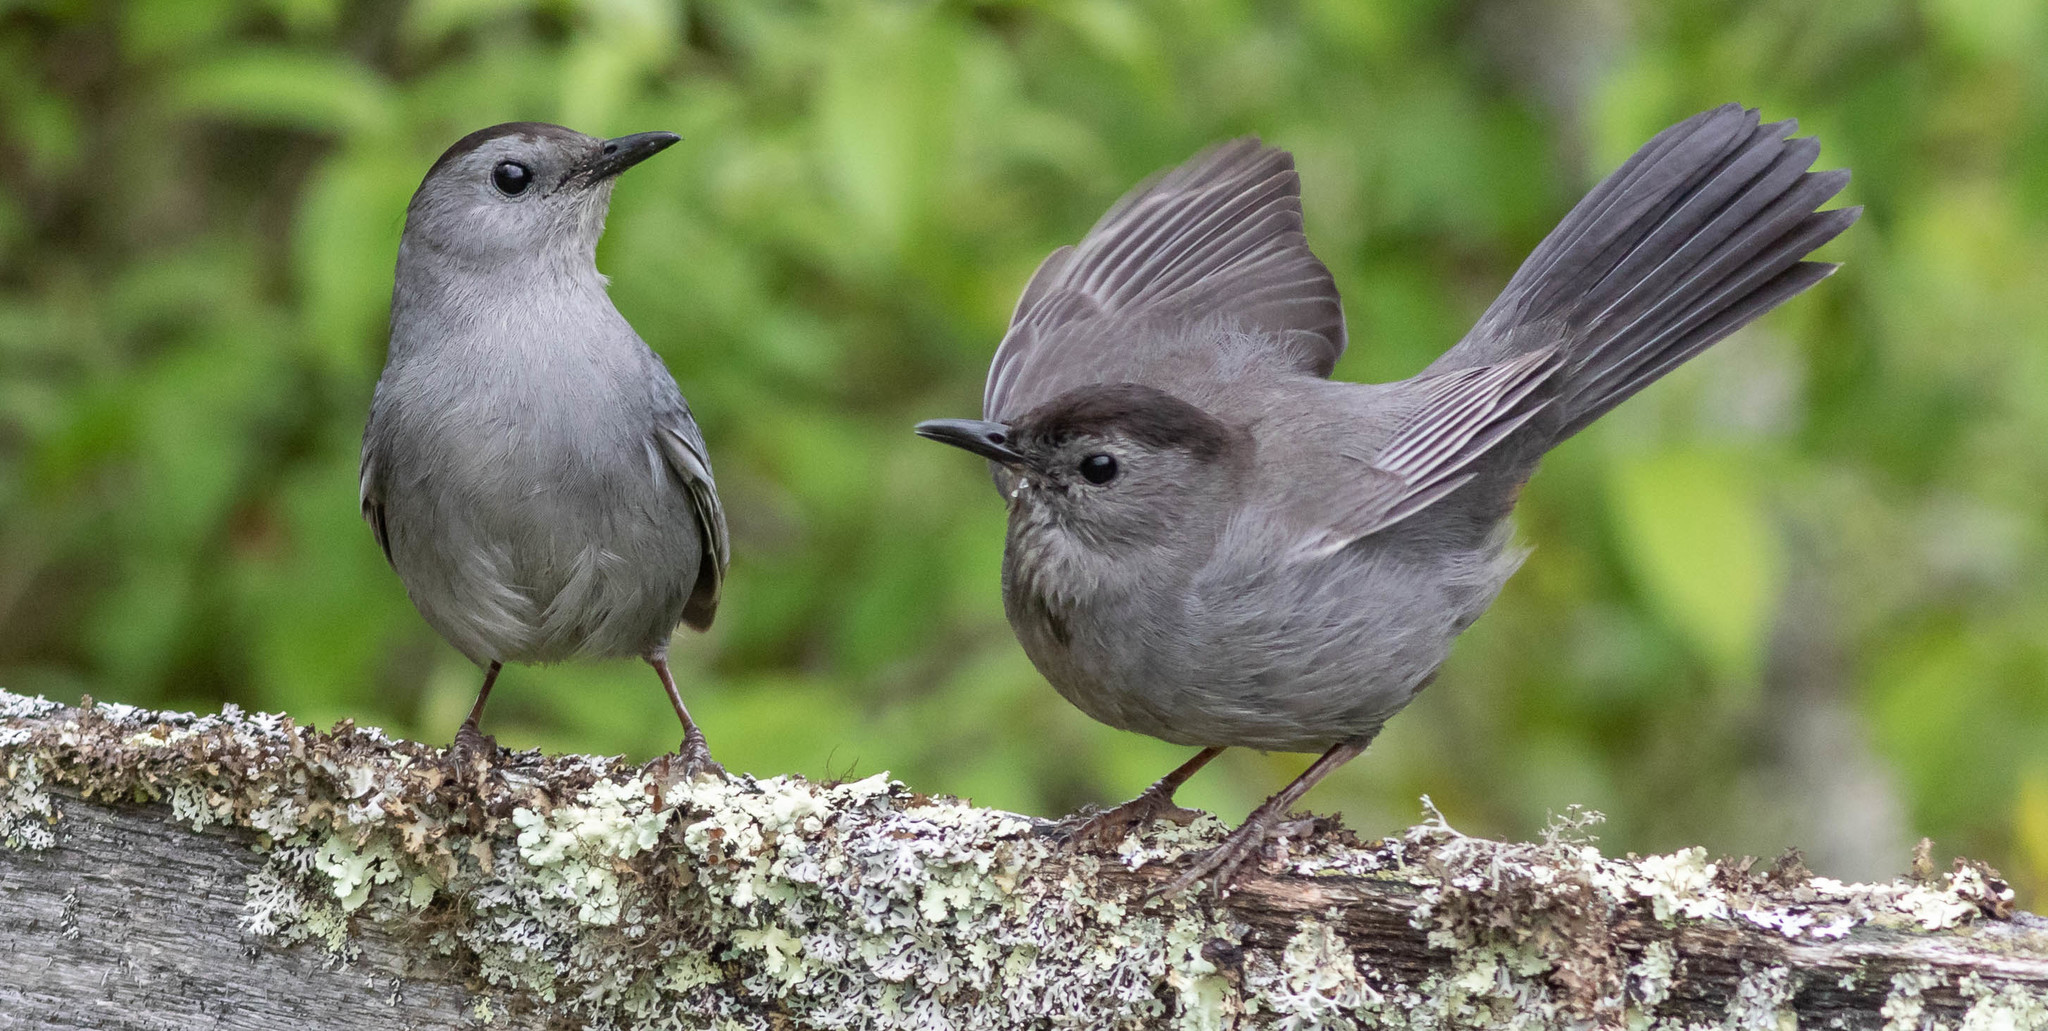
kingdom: Animalia
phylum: Chordata
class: Aves
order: Passeriformes
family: Mimidae
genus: Dumetella
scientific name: Dumetella carolinensis
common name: Gray catbird
